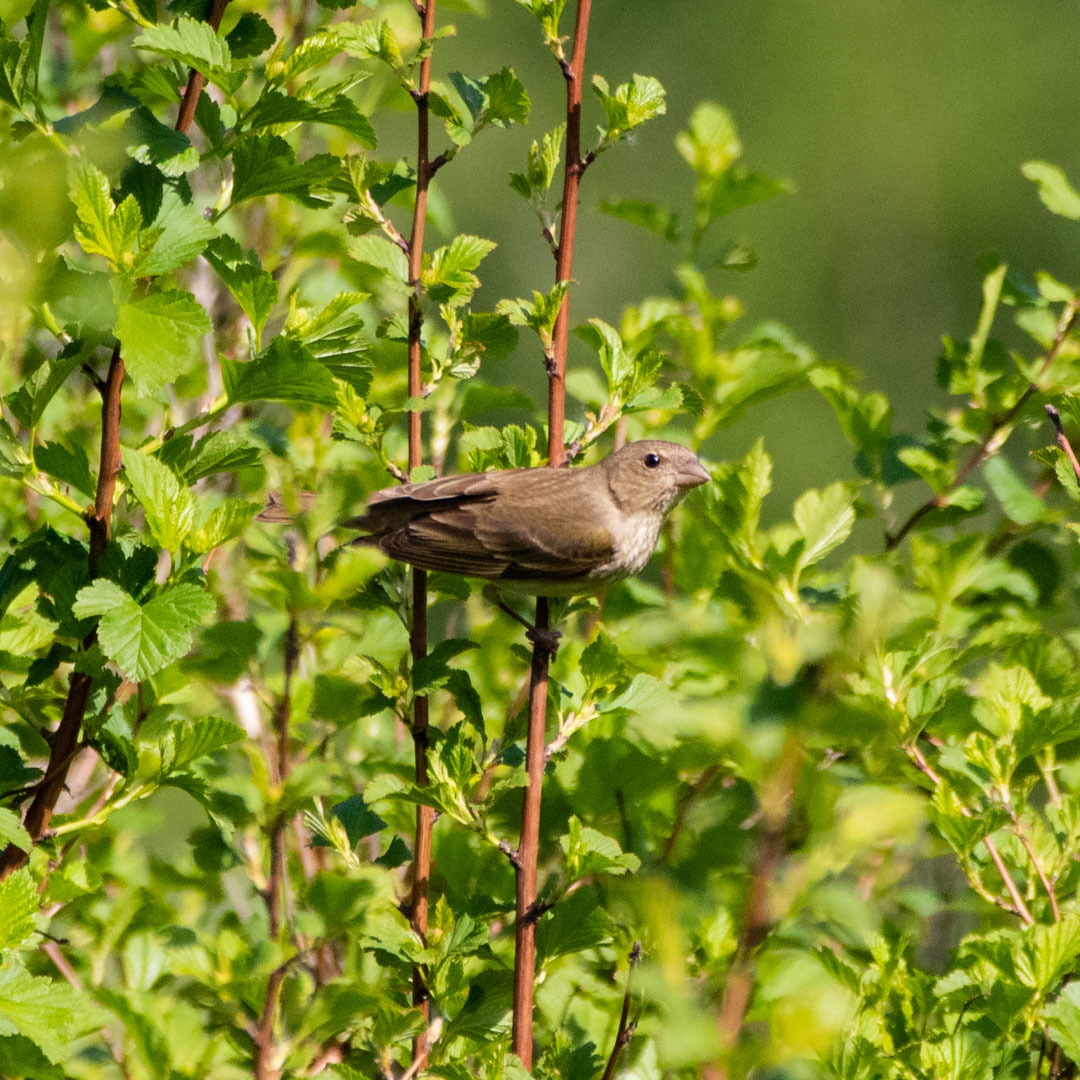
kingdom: Animalia
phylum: Chordata
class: Aves
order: Passeriformes
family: Fringillidae
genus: Carpodacus
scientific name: Carpodacus erythrinus
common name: Common rosefinch
